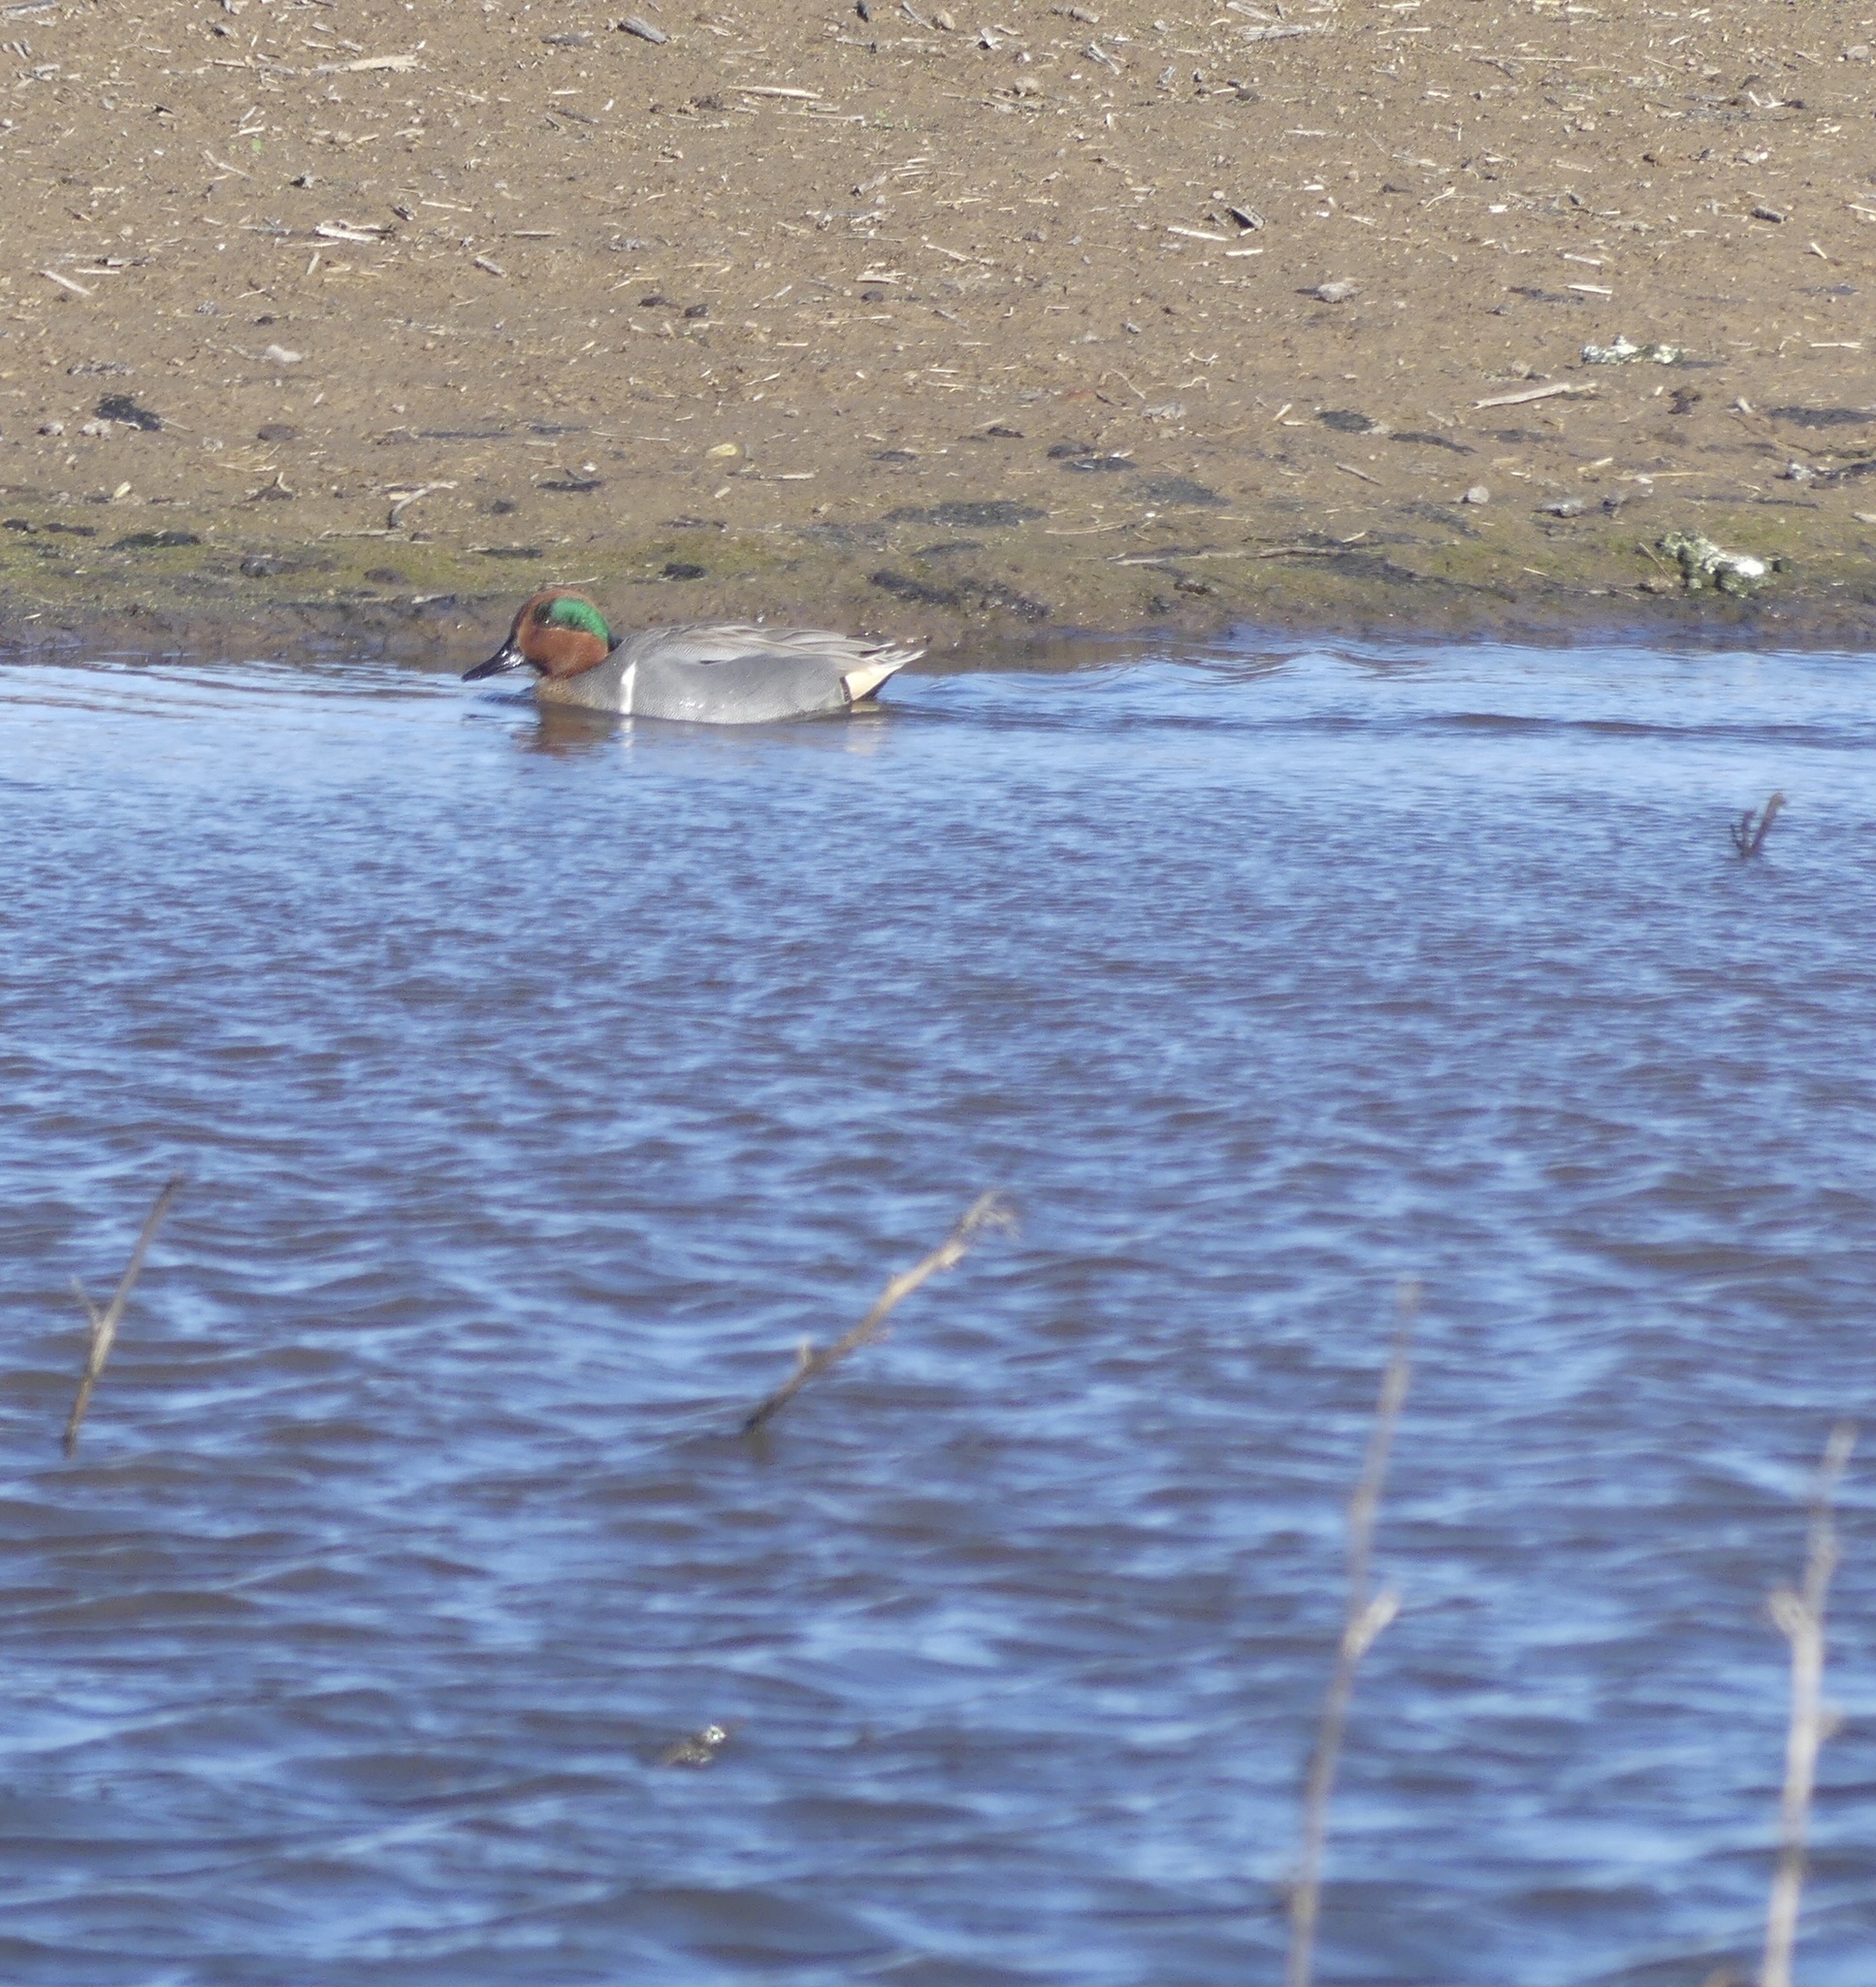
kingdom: Animalia
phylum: Chordata
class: Aves
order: Anseriformes
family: Anatidae
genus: Anas
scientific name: Anas crecca
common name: Eurasian teal
